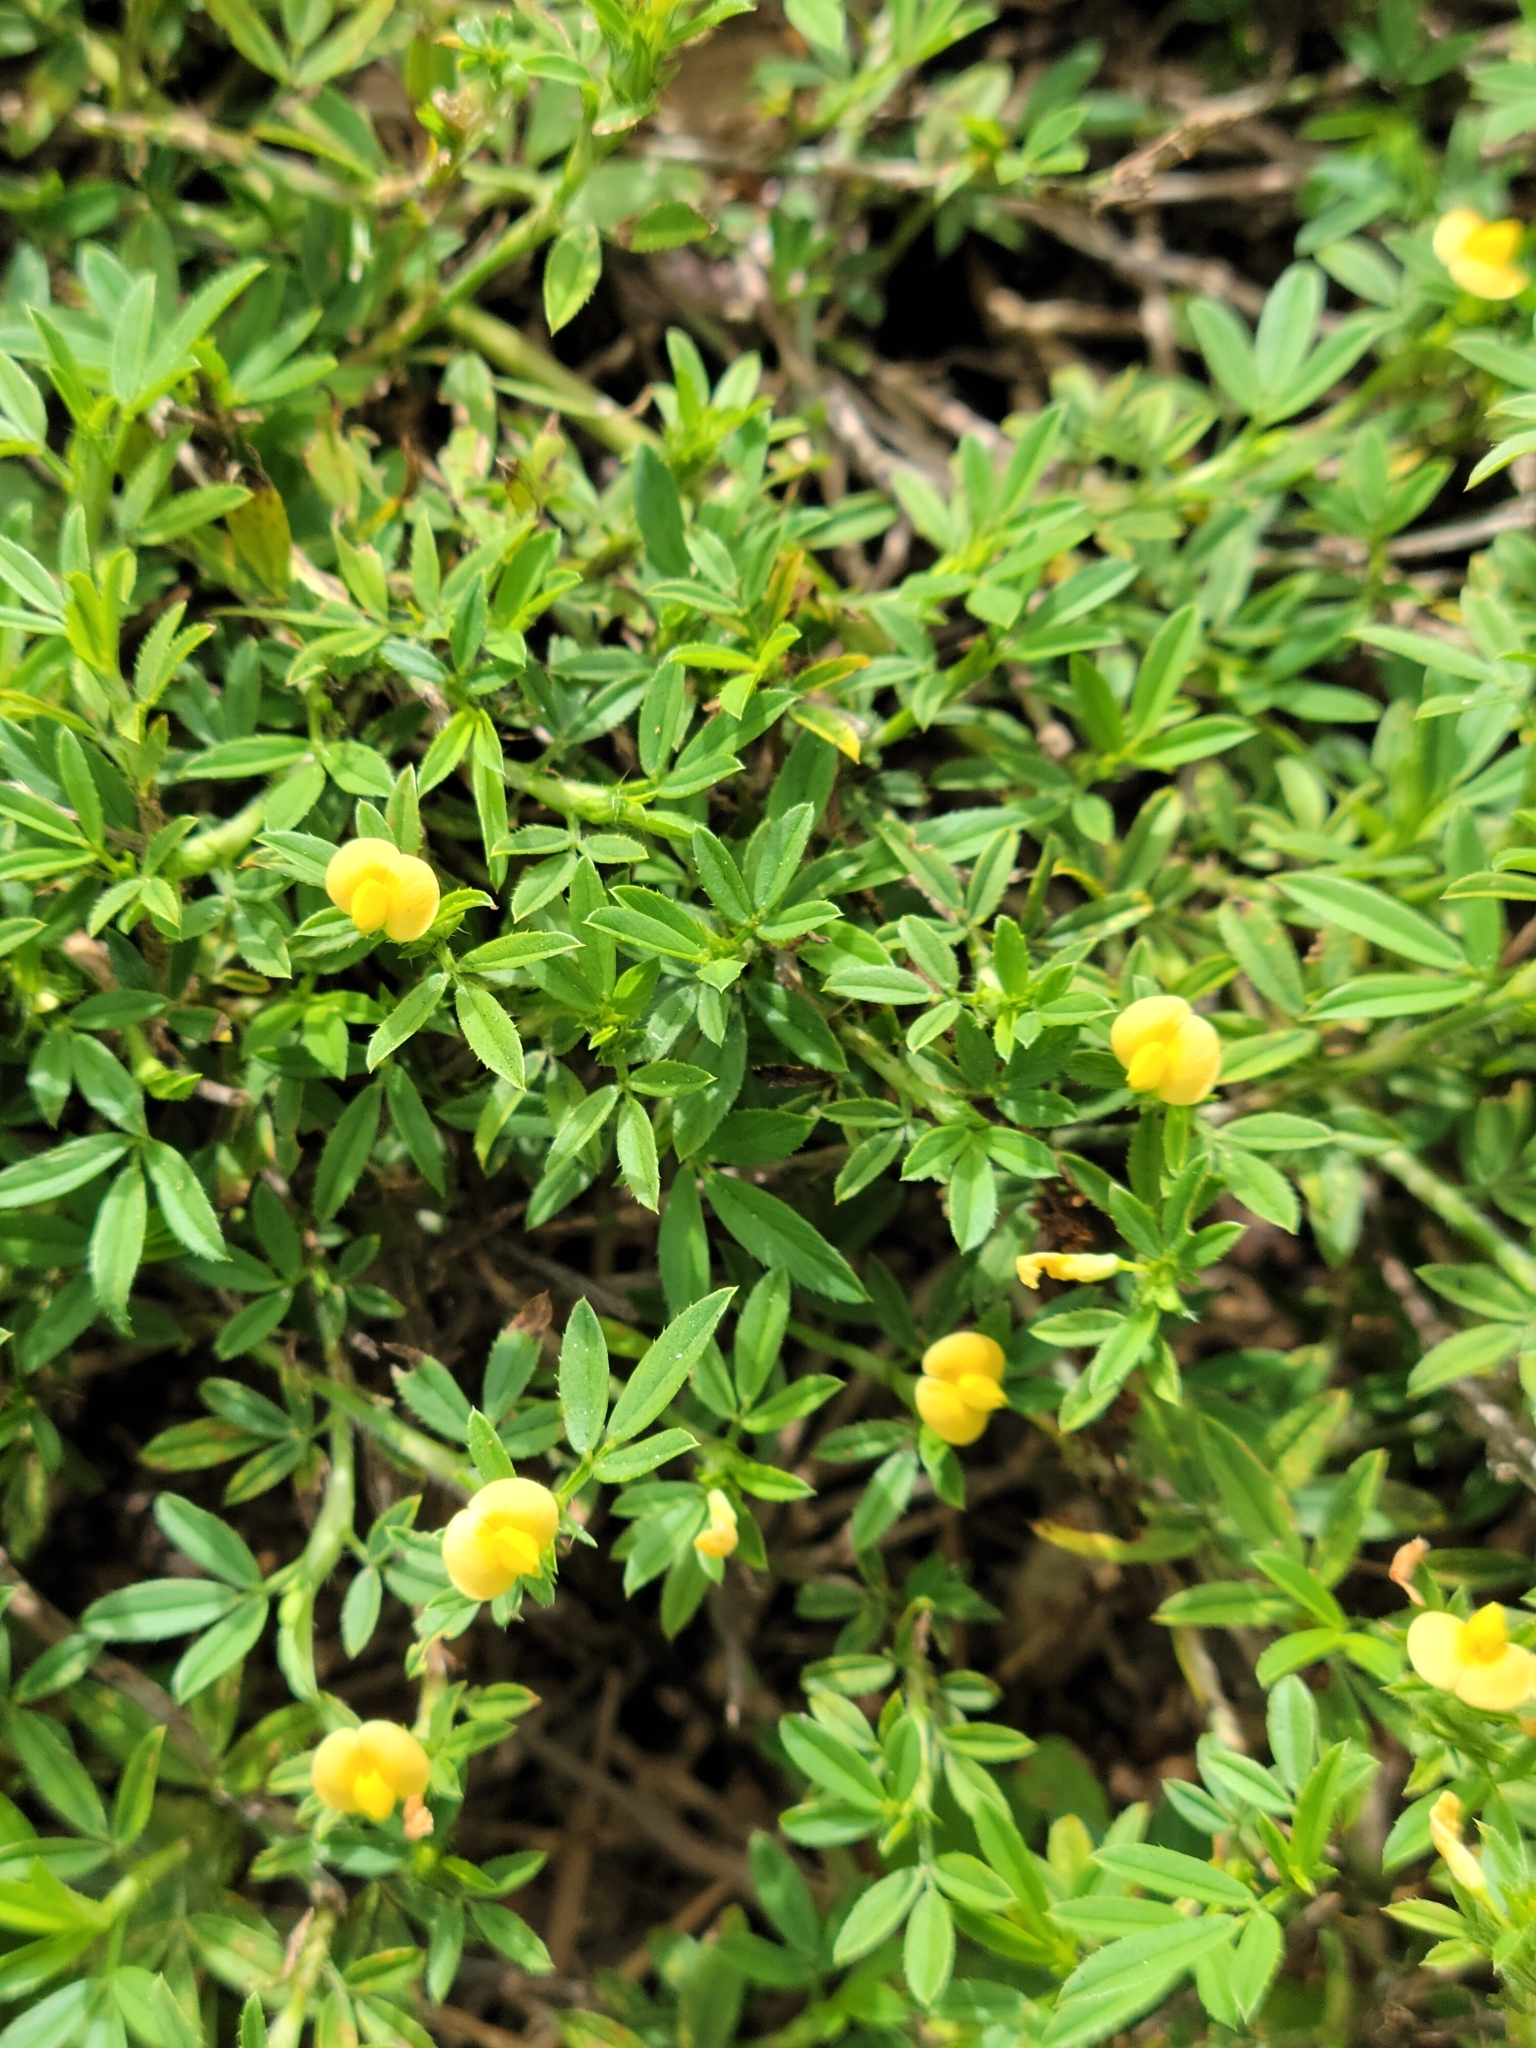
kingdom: Plantae
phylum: Tracheophyta
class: Magnoliopsida
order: Fabales
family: Fabaceae
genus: Stylosanthes
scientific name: Stylosanthes hamata
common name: Cheesytoes
